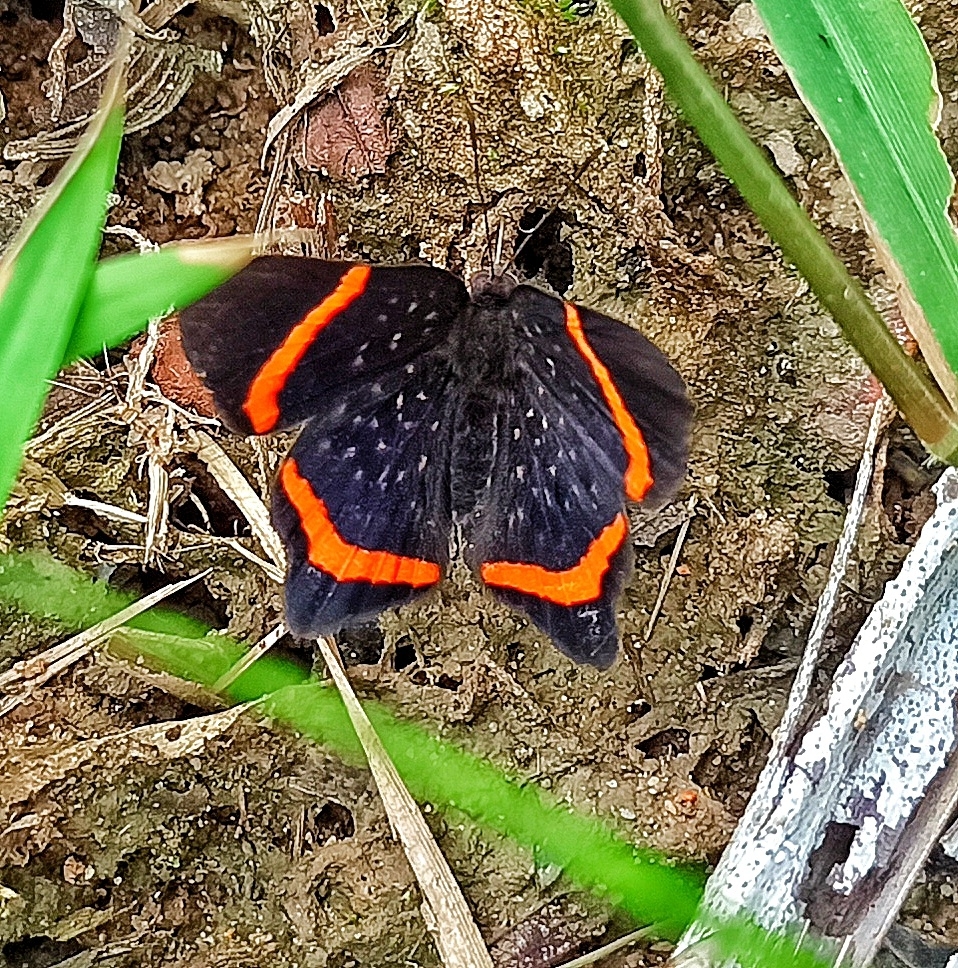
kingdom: Animalia
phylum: Arthropoda
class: Insecta
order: Lepidoptera
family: Riodinidae
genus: Riodina
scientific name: Riodina lysippus
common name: Lysippus metalmark
